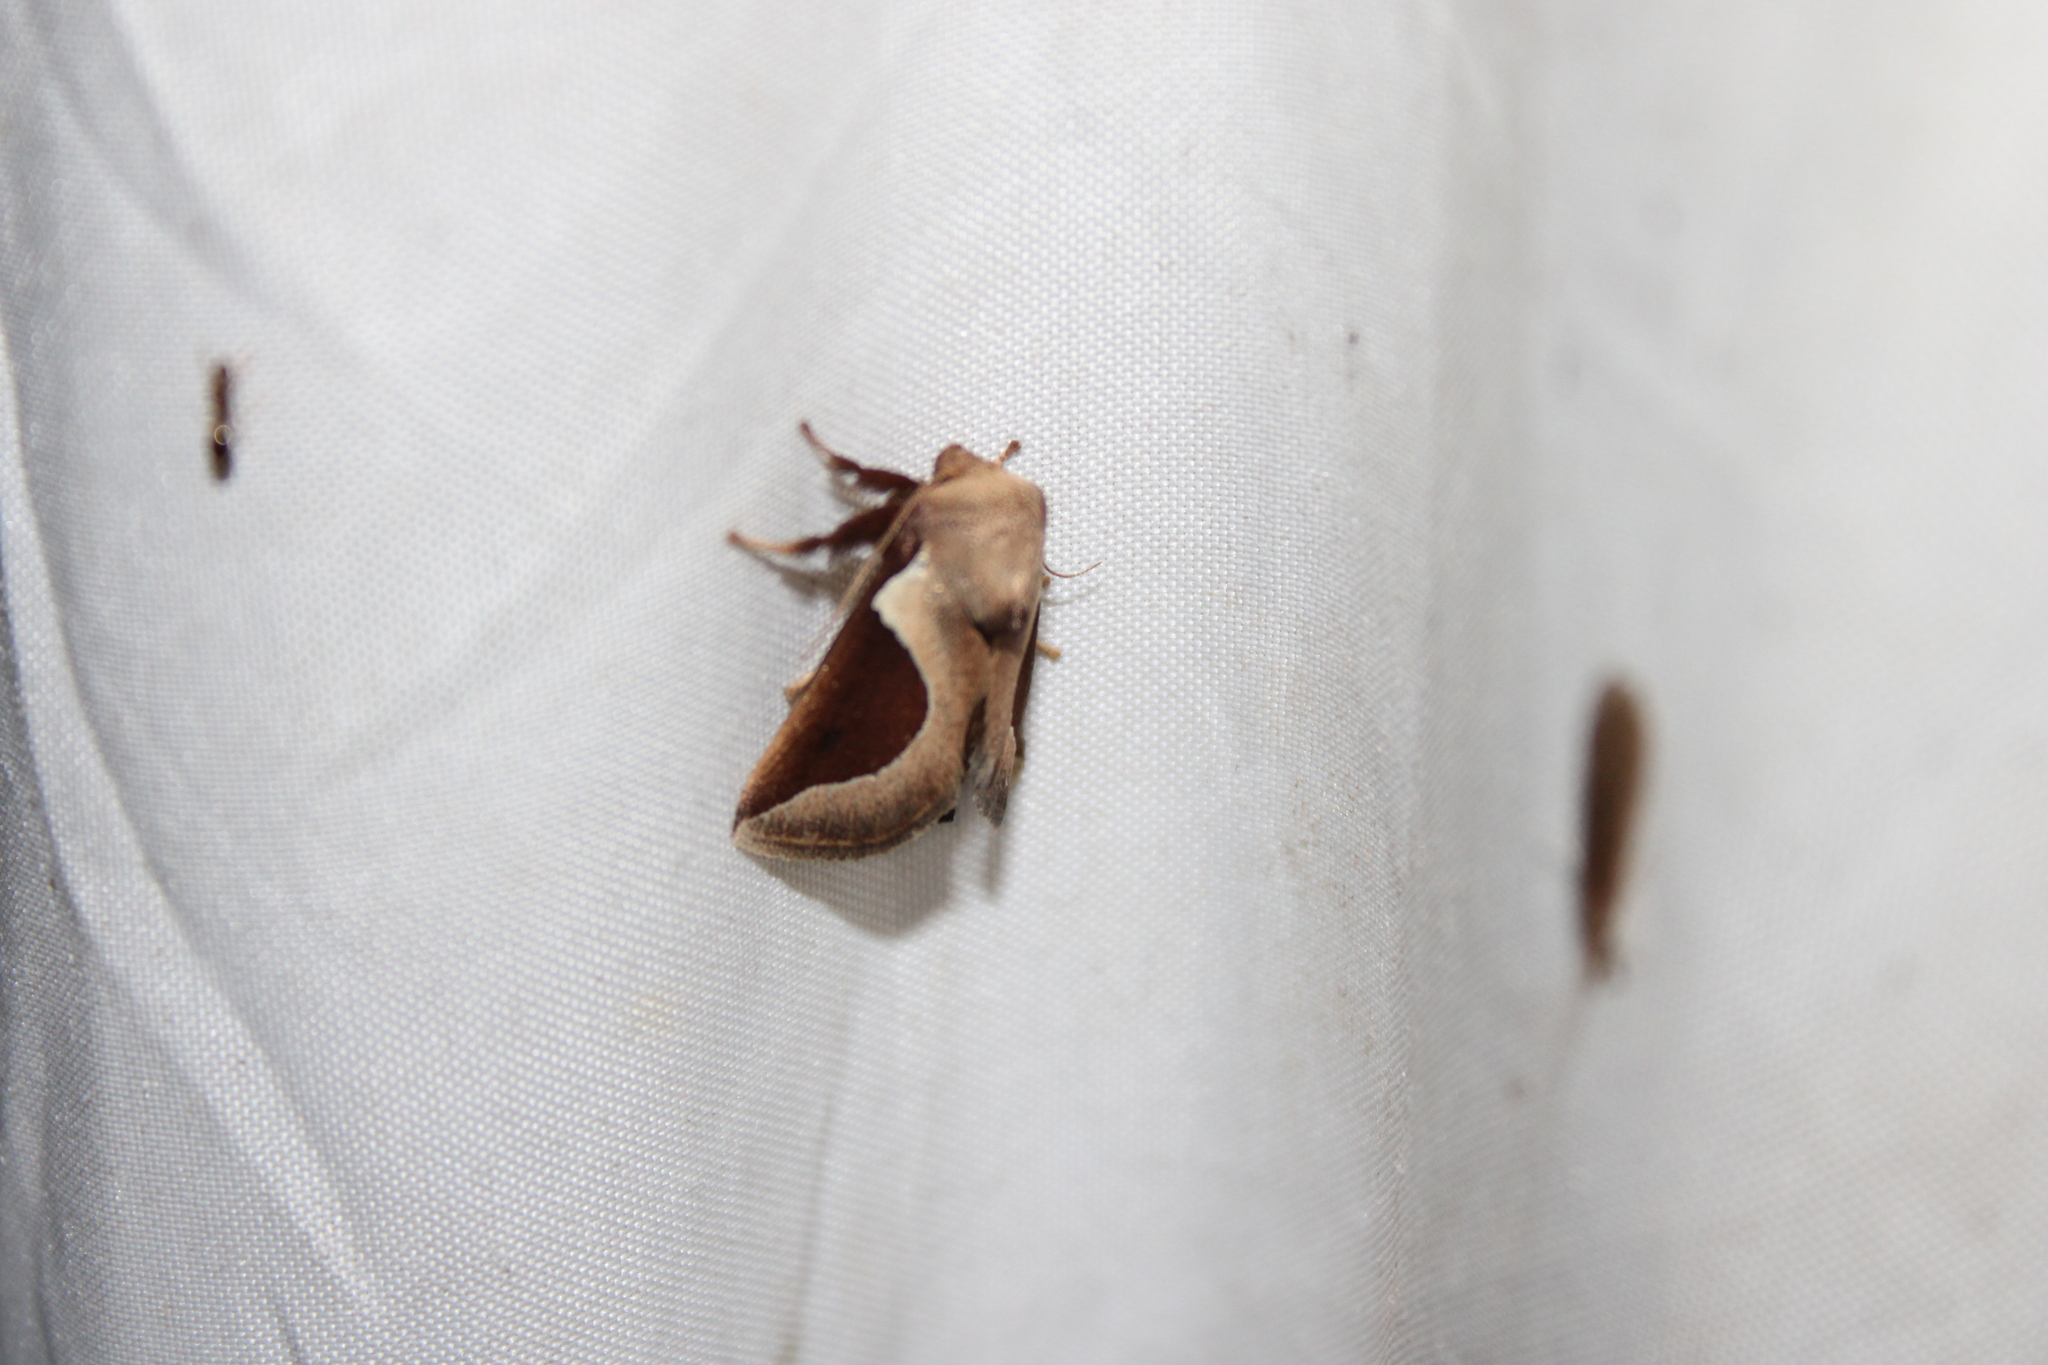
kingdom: Animalia
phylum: Arthropoda
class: Insecta
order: Lepidoptera
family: Limacodidae
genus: Prolimacodes
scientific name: Prolimacodes badia
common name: Skiff moth
